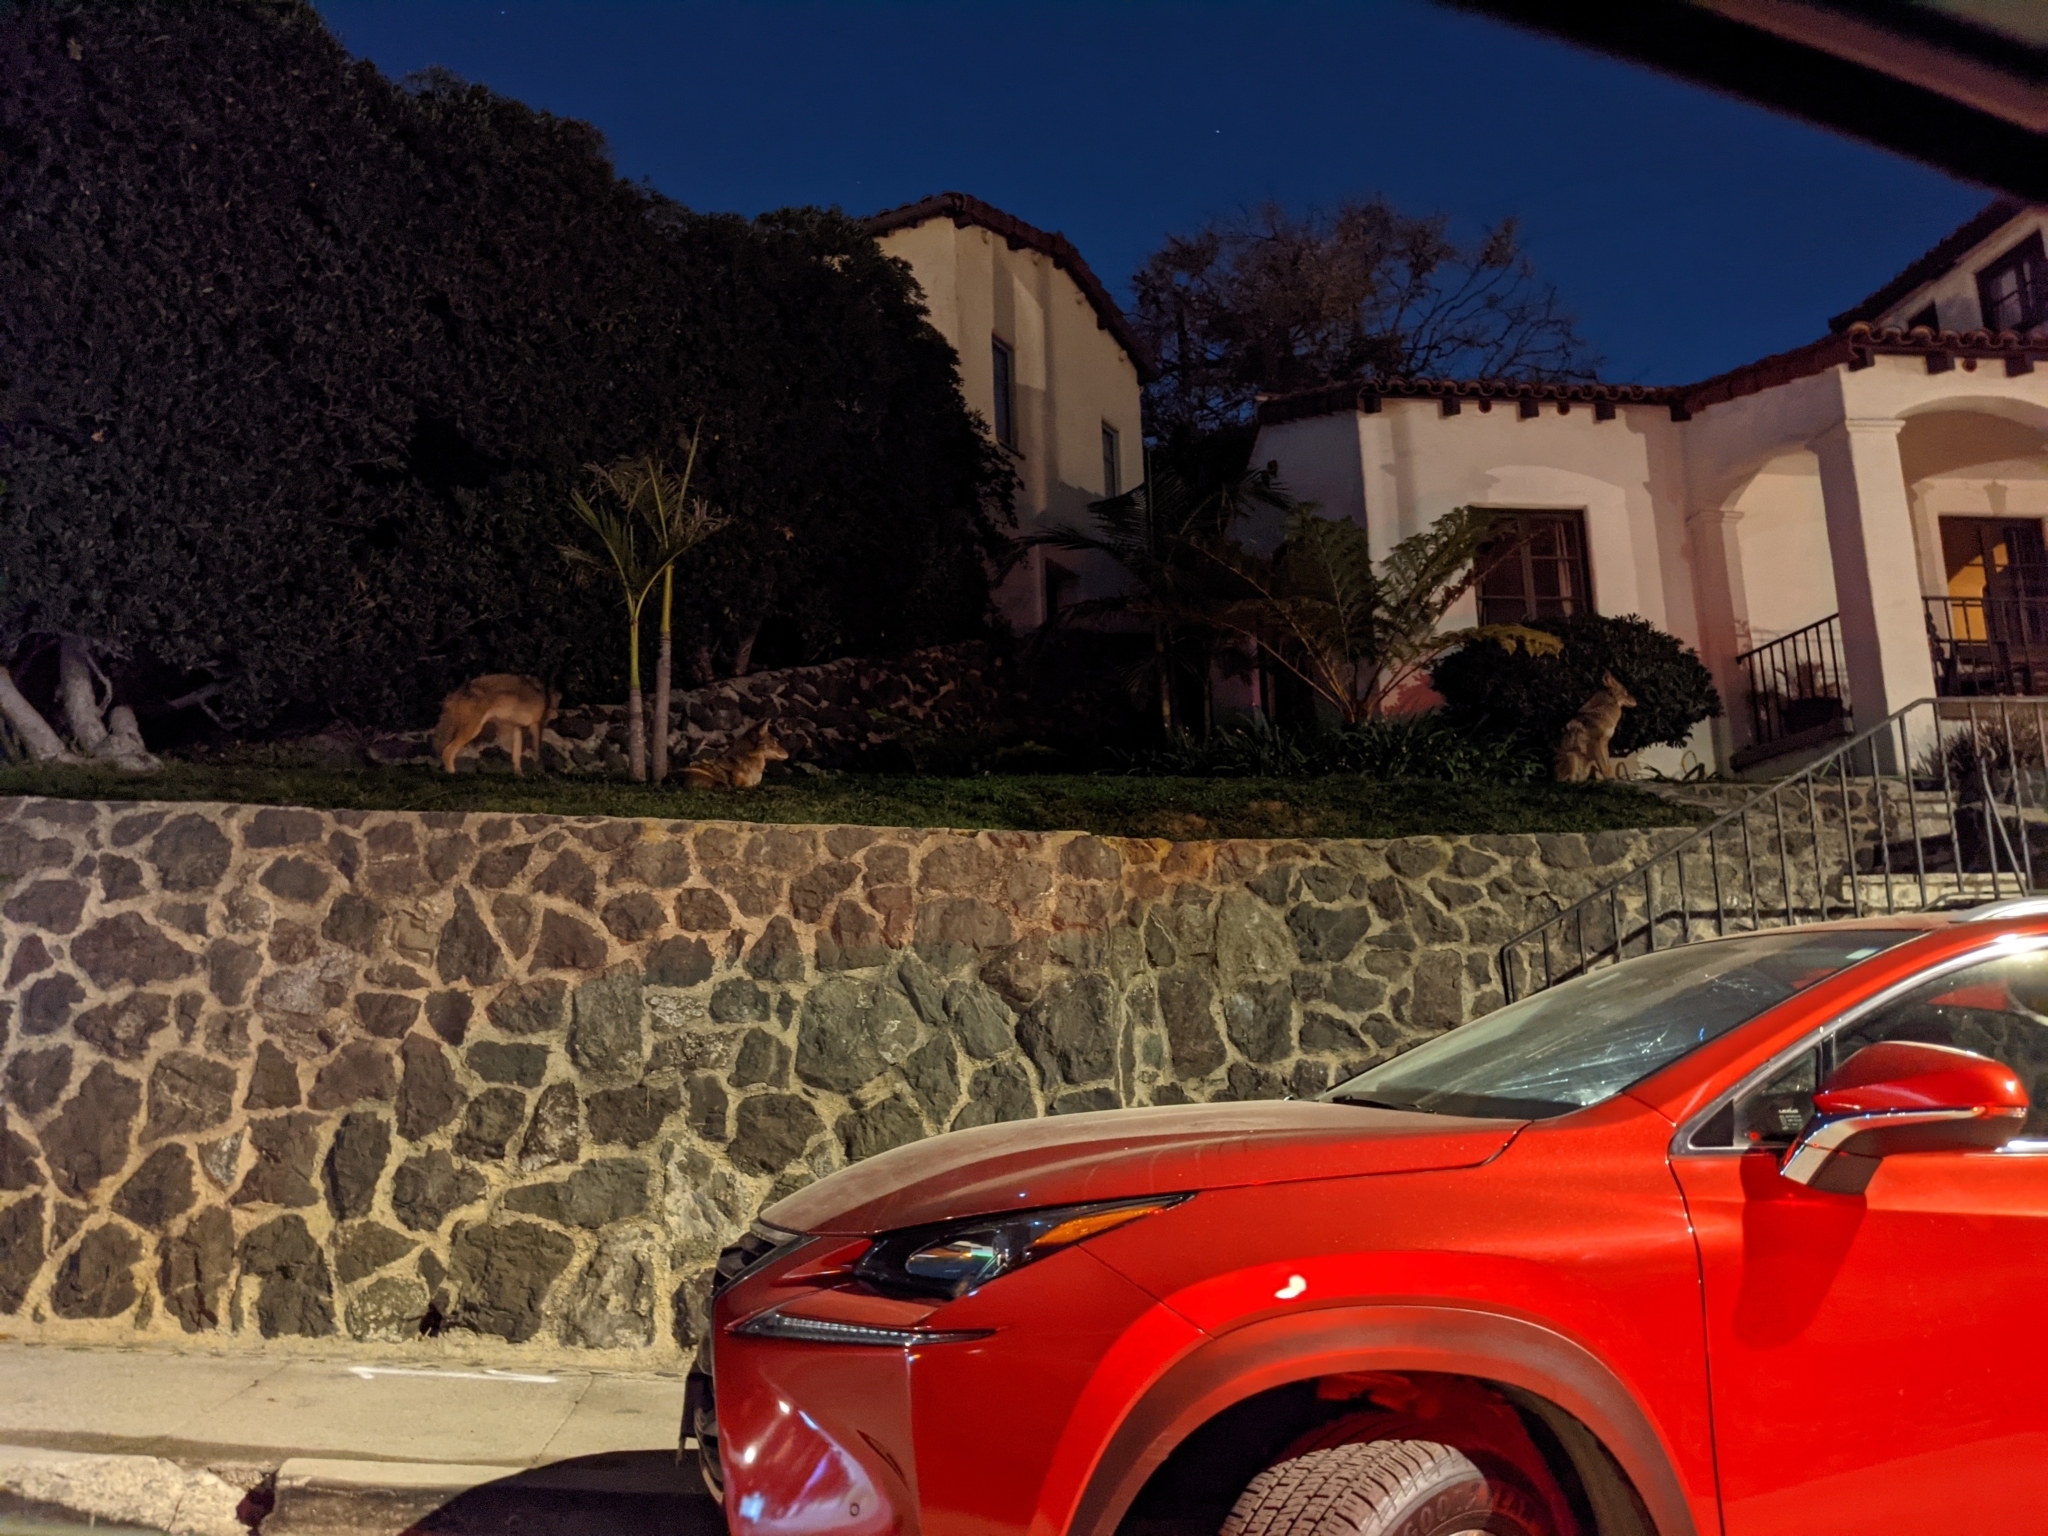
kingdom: Animalia
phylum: Chordata
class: Mammalia
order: Carnivora
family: Canidae
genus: Canis
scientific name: Canis latrans
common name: Coyote
